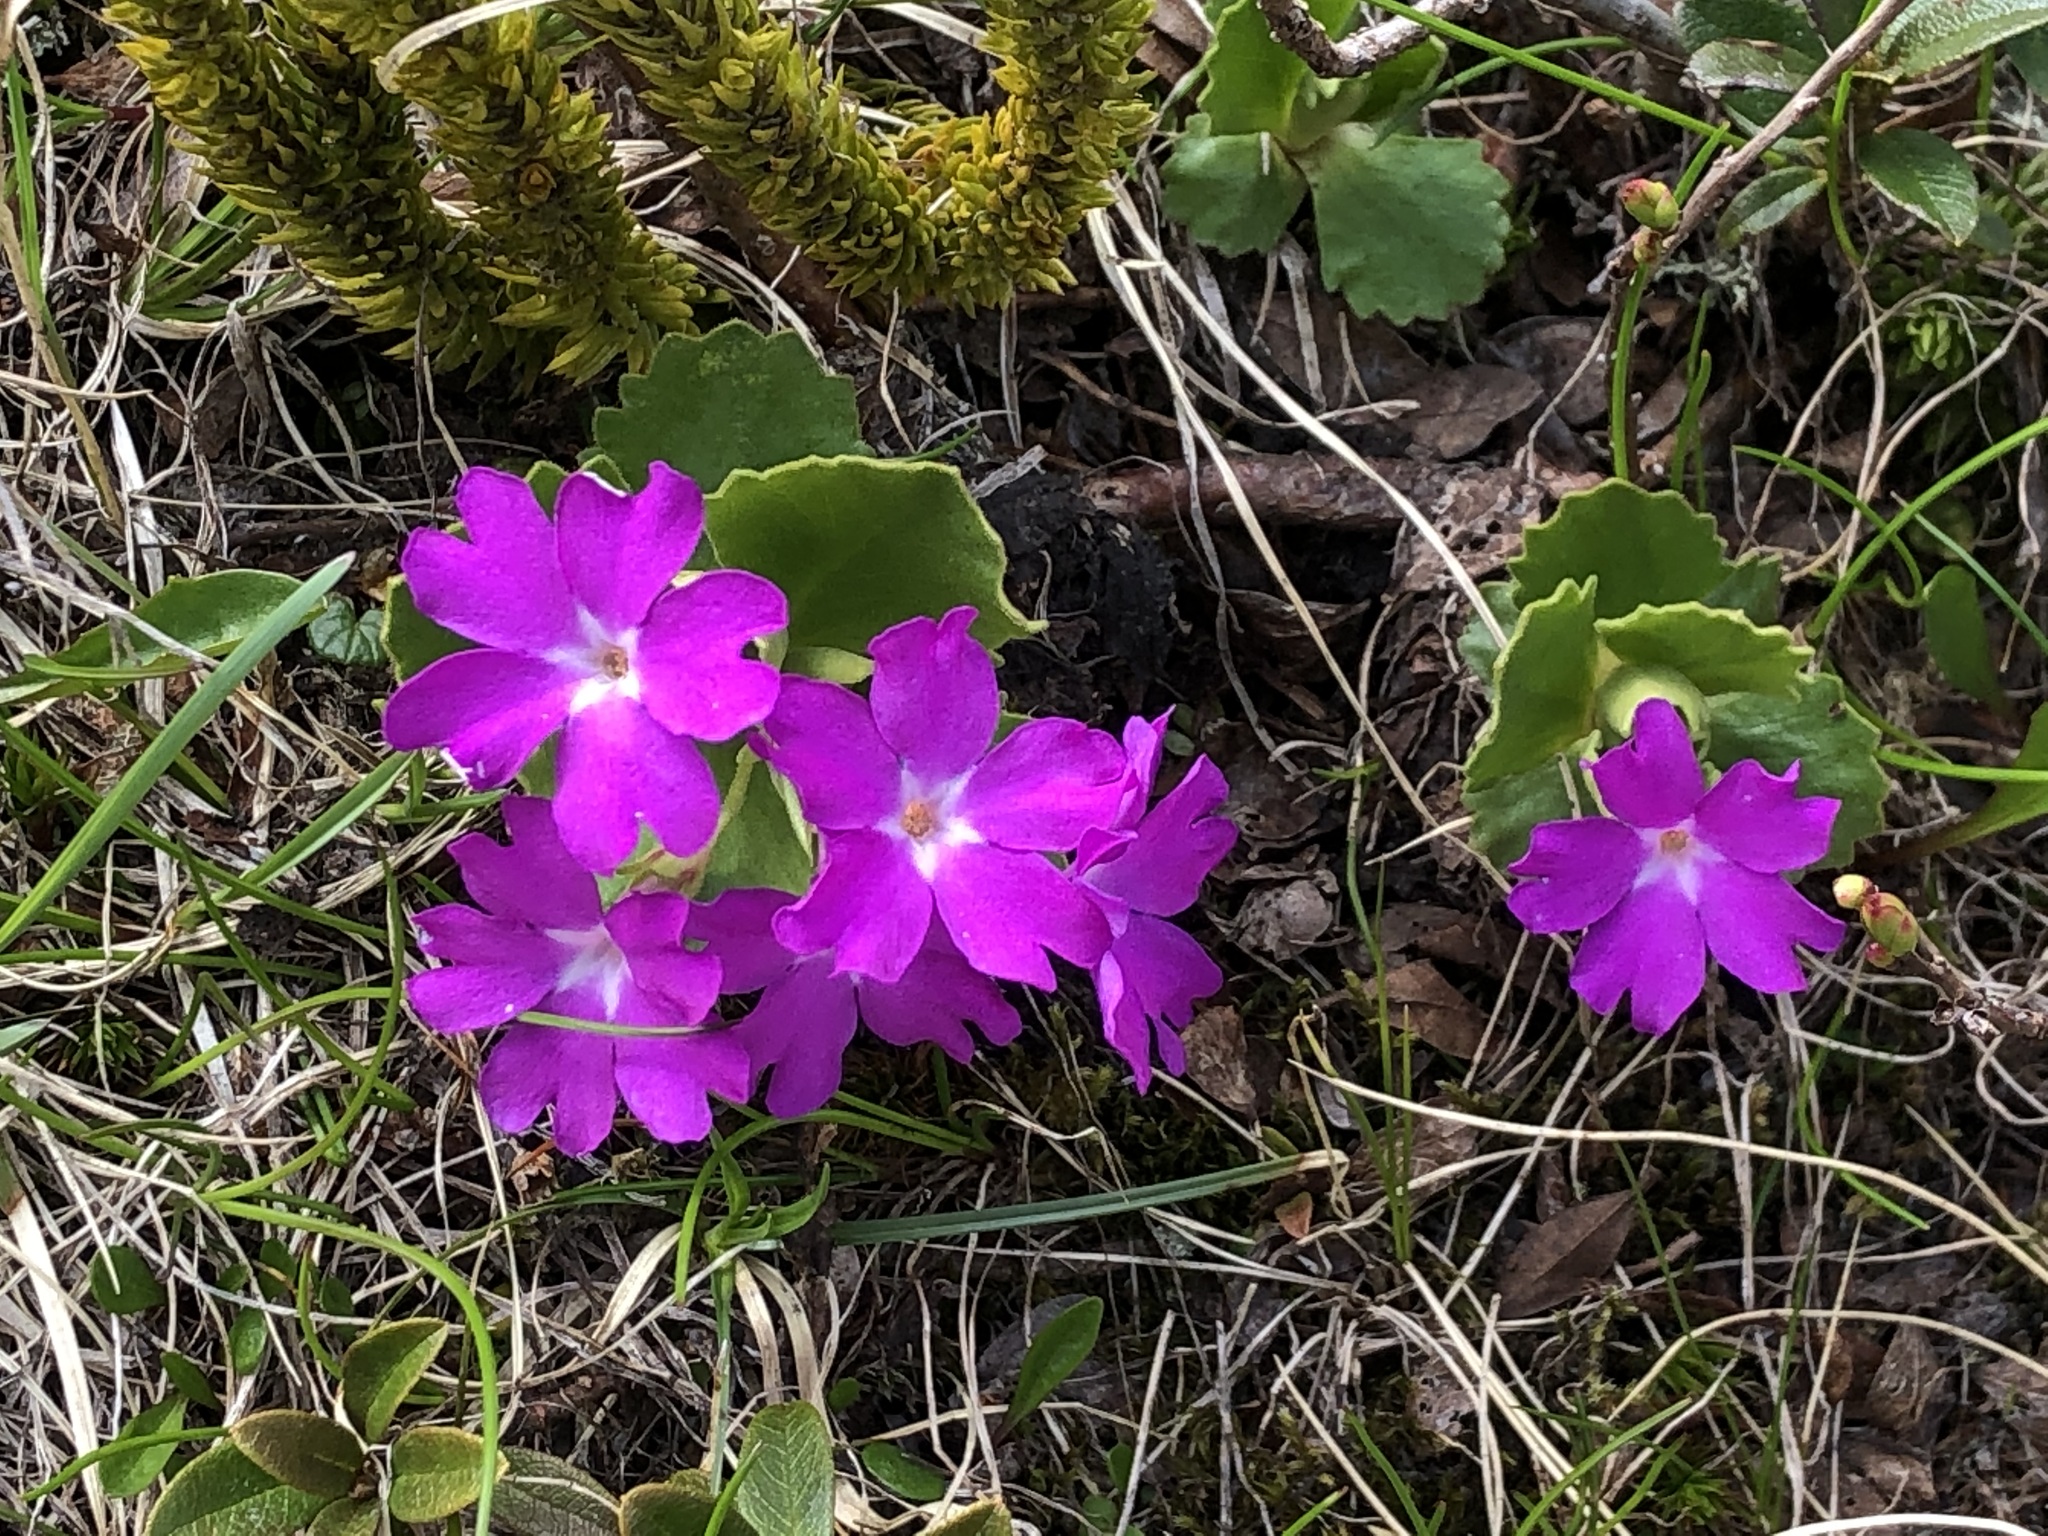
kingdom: Plantae
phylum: Tracheophyta
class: Magnoliopsida
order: Ericales
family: Primulaceae
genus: Primula
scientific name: Primula hirsuta
